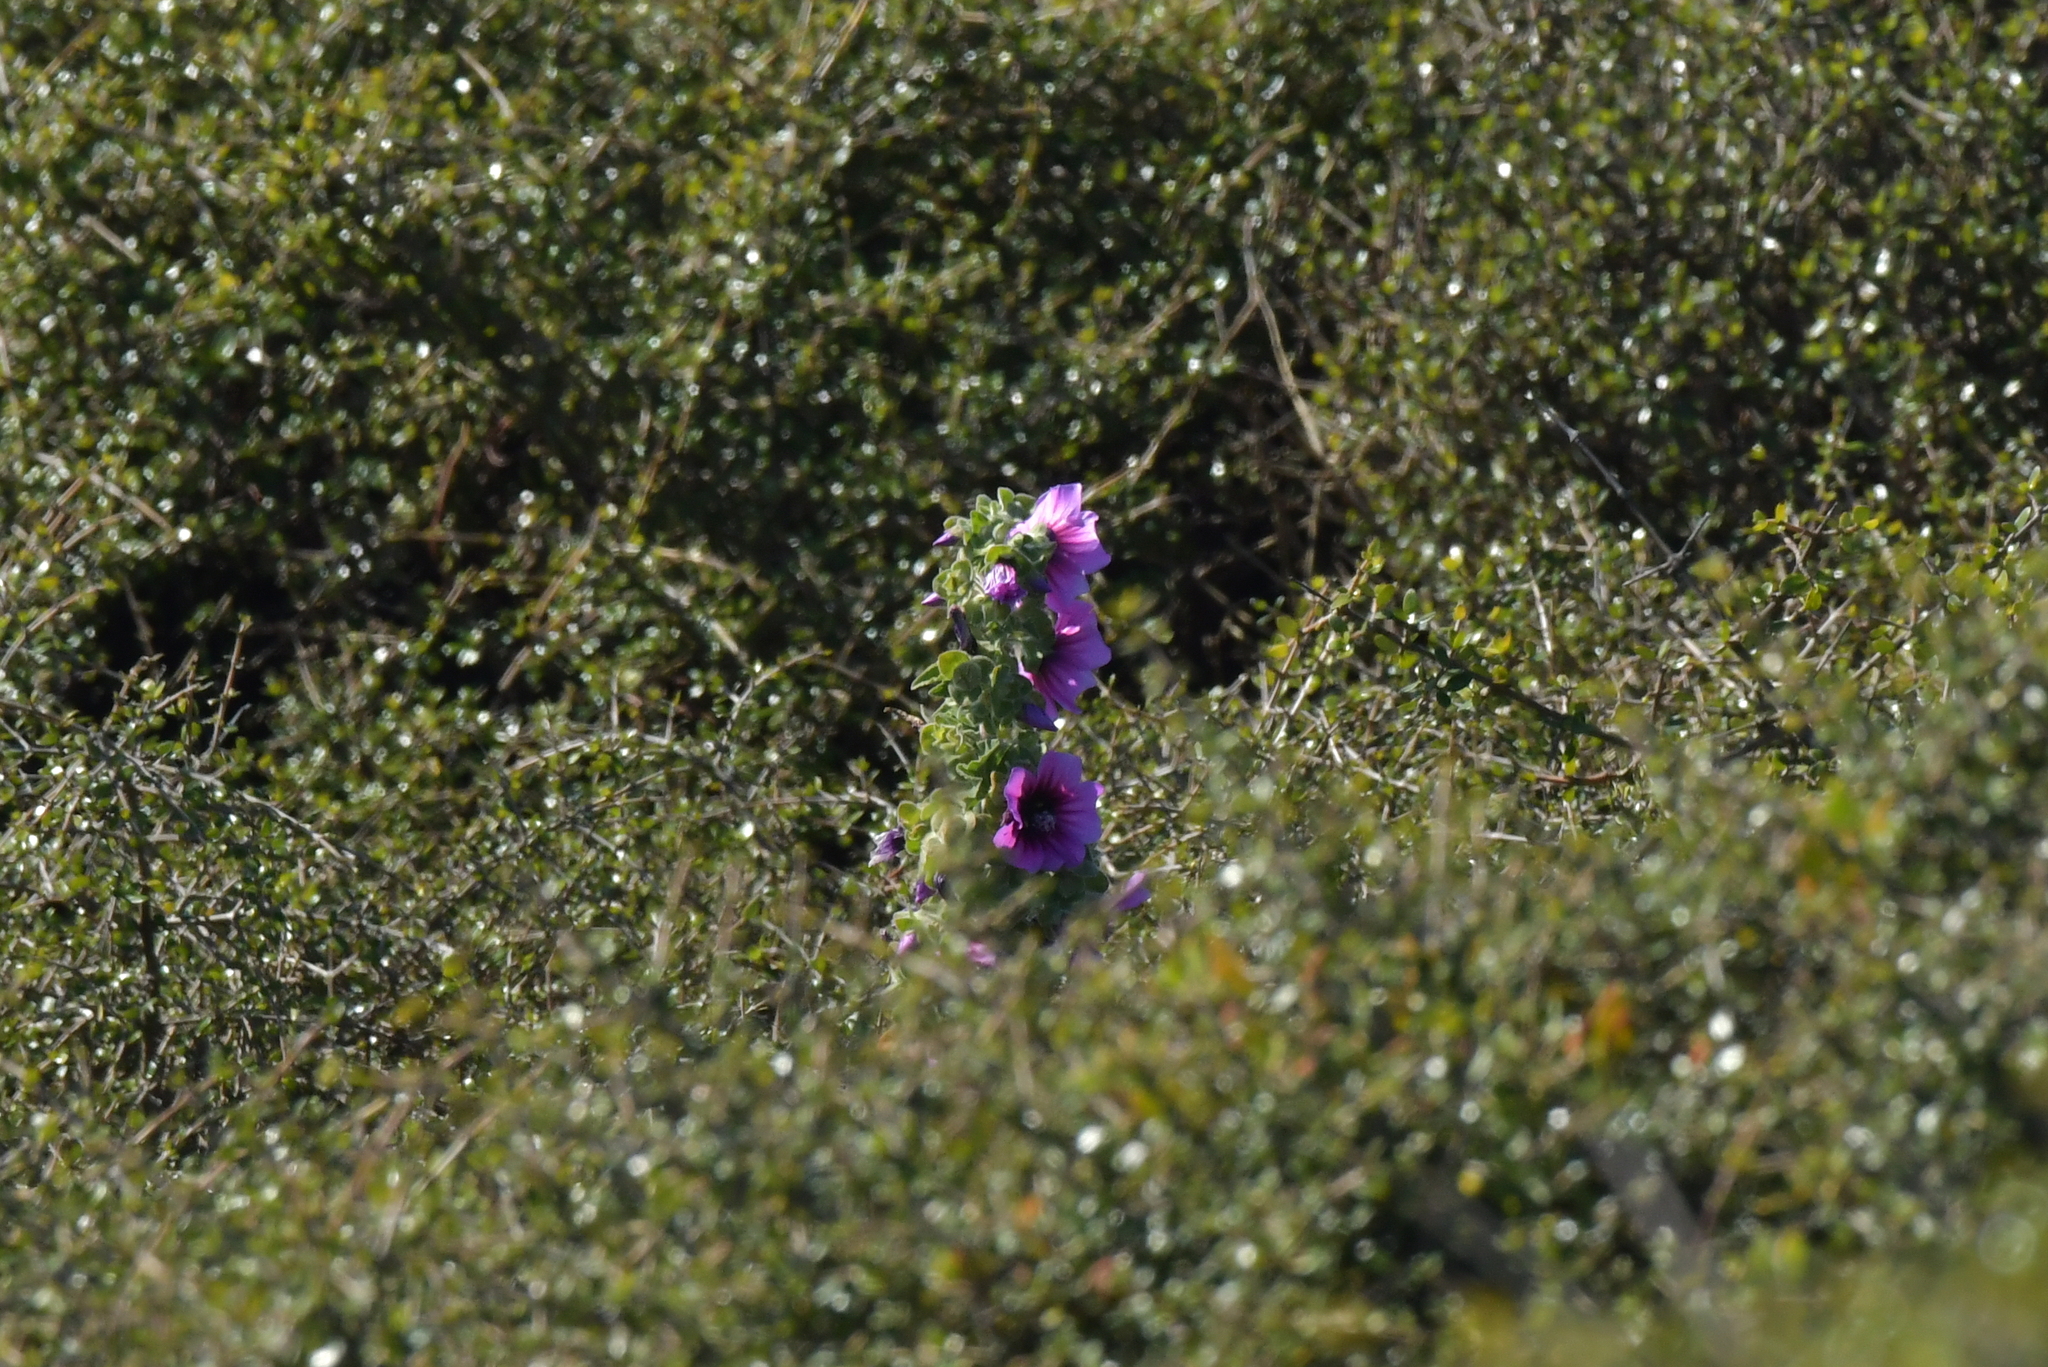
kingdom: Plantae
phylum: Tracheophyta
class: Magnoliopsida
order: Malvales
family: Malvaceae
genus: Malva
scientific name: Malva arborea
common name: Tree mallow
